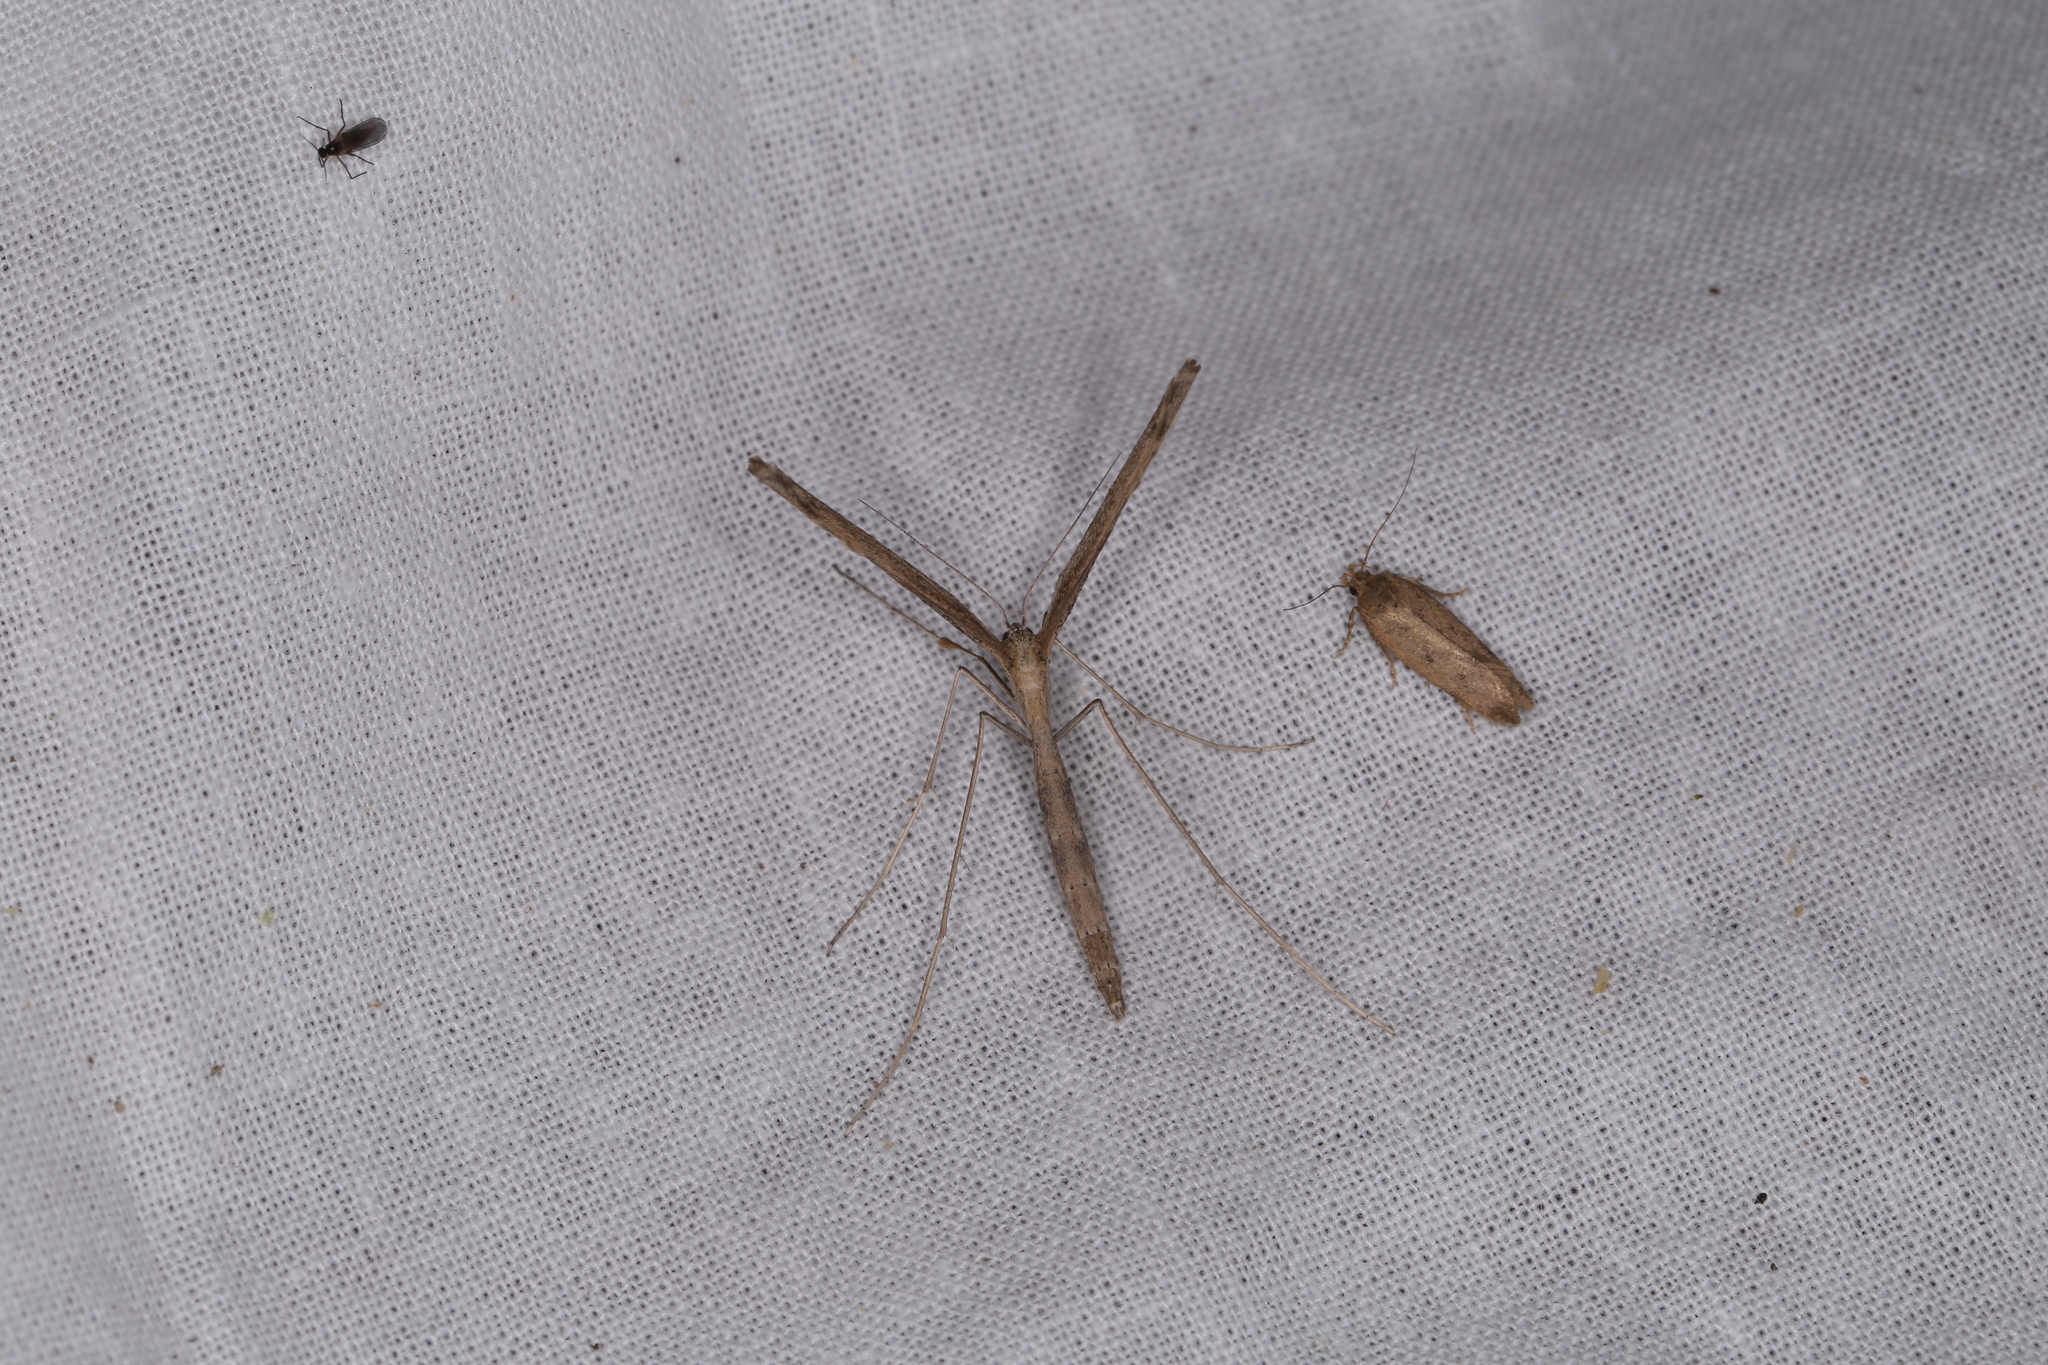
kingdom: Animalia
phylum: Arthropoda
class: Insecta
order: Lepidoptera
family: Pterophoridae
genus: Agdistis
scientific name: Agdistis bennetii
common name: Saltmarsh plume
